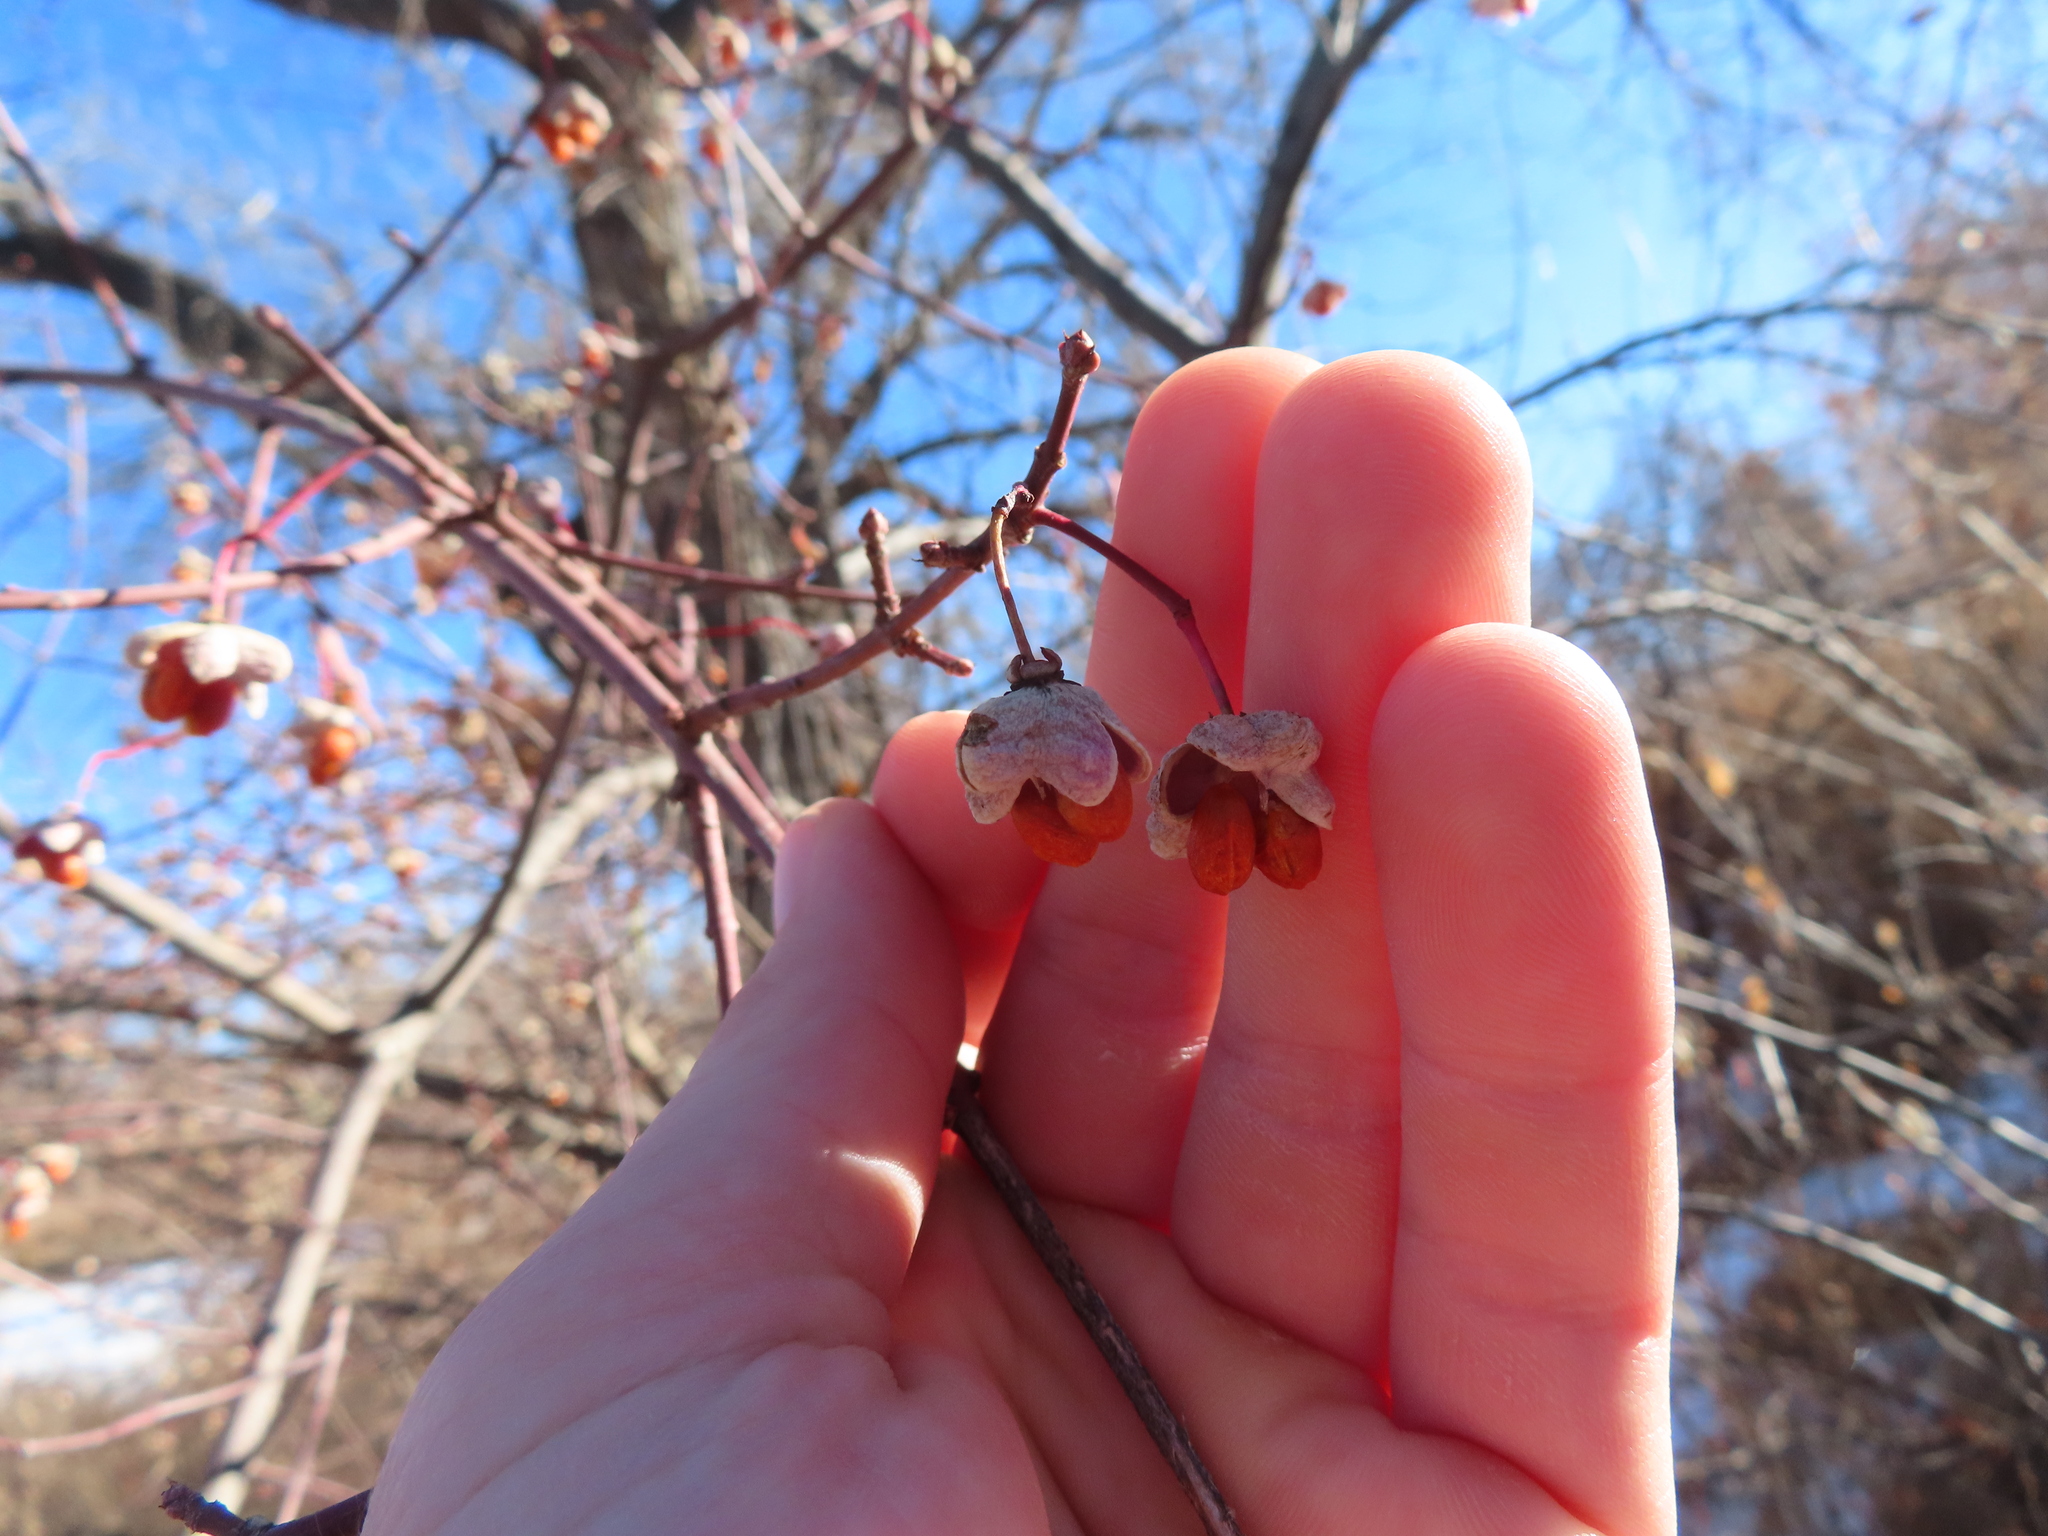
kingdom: Plantae
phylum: Tracheophyta
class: Magnoliopsida
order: Celastrales
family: Celastraceae
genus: Euonymus
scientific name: Euonymus atropurpureus
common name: Eastern wahoo
